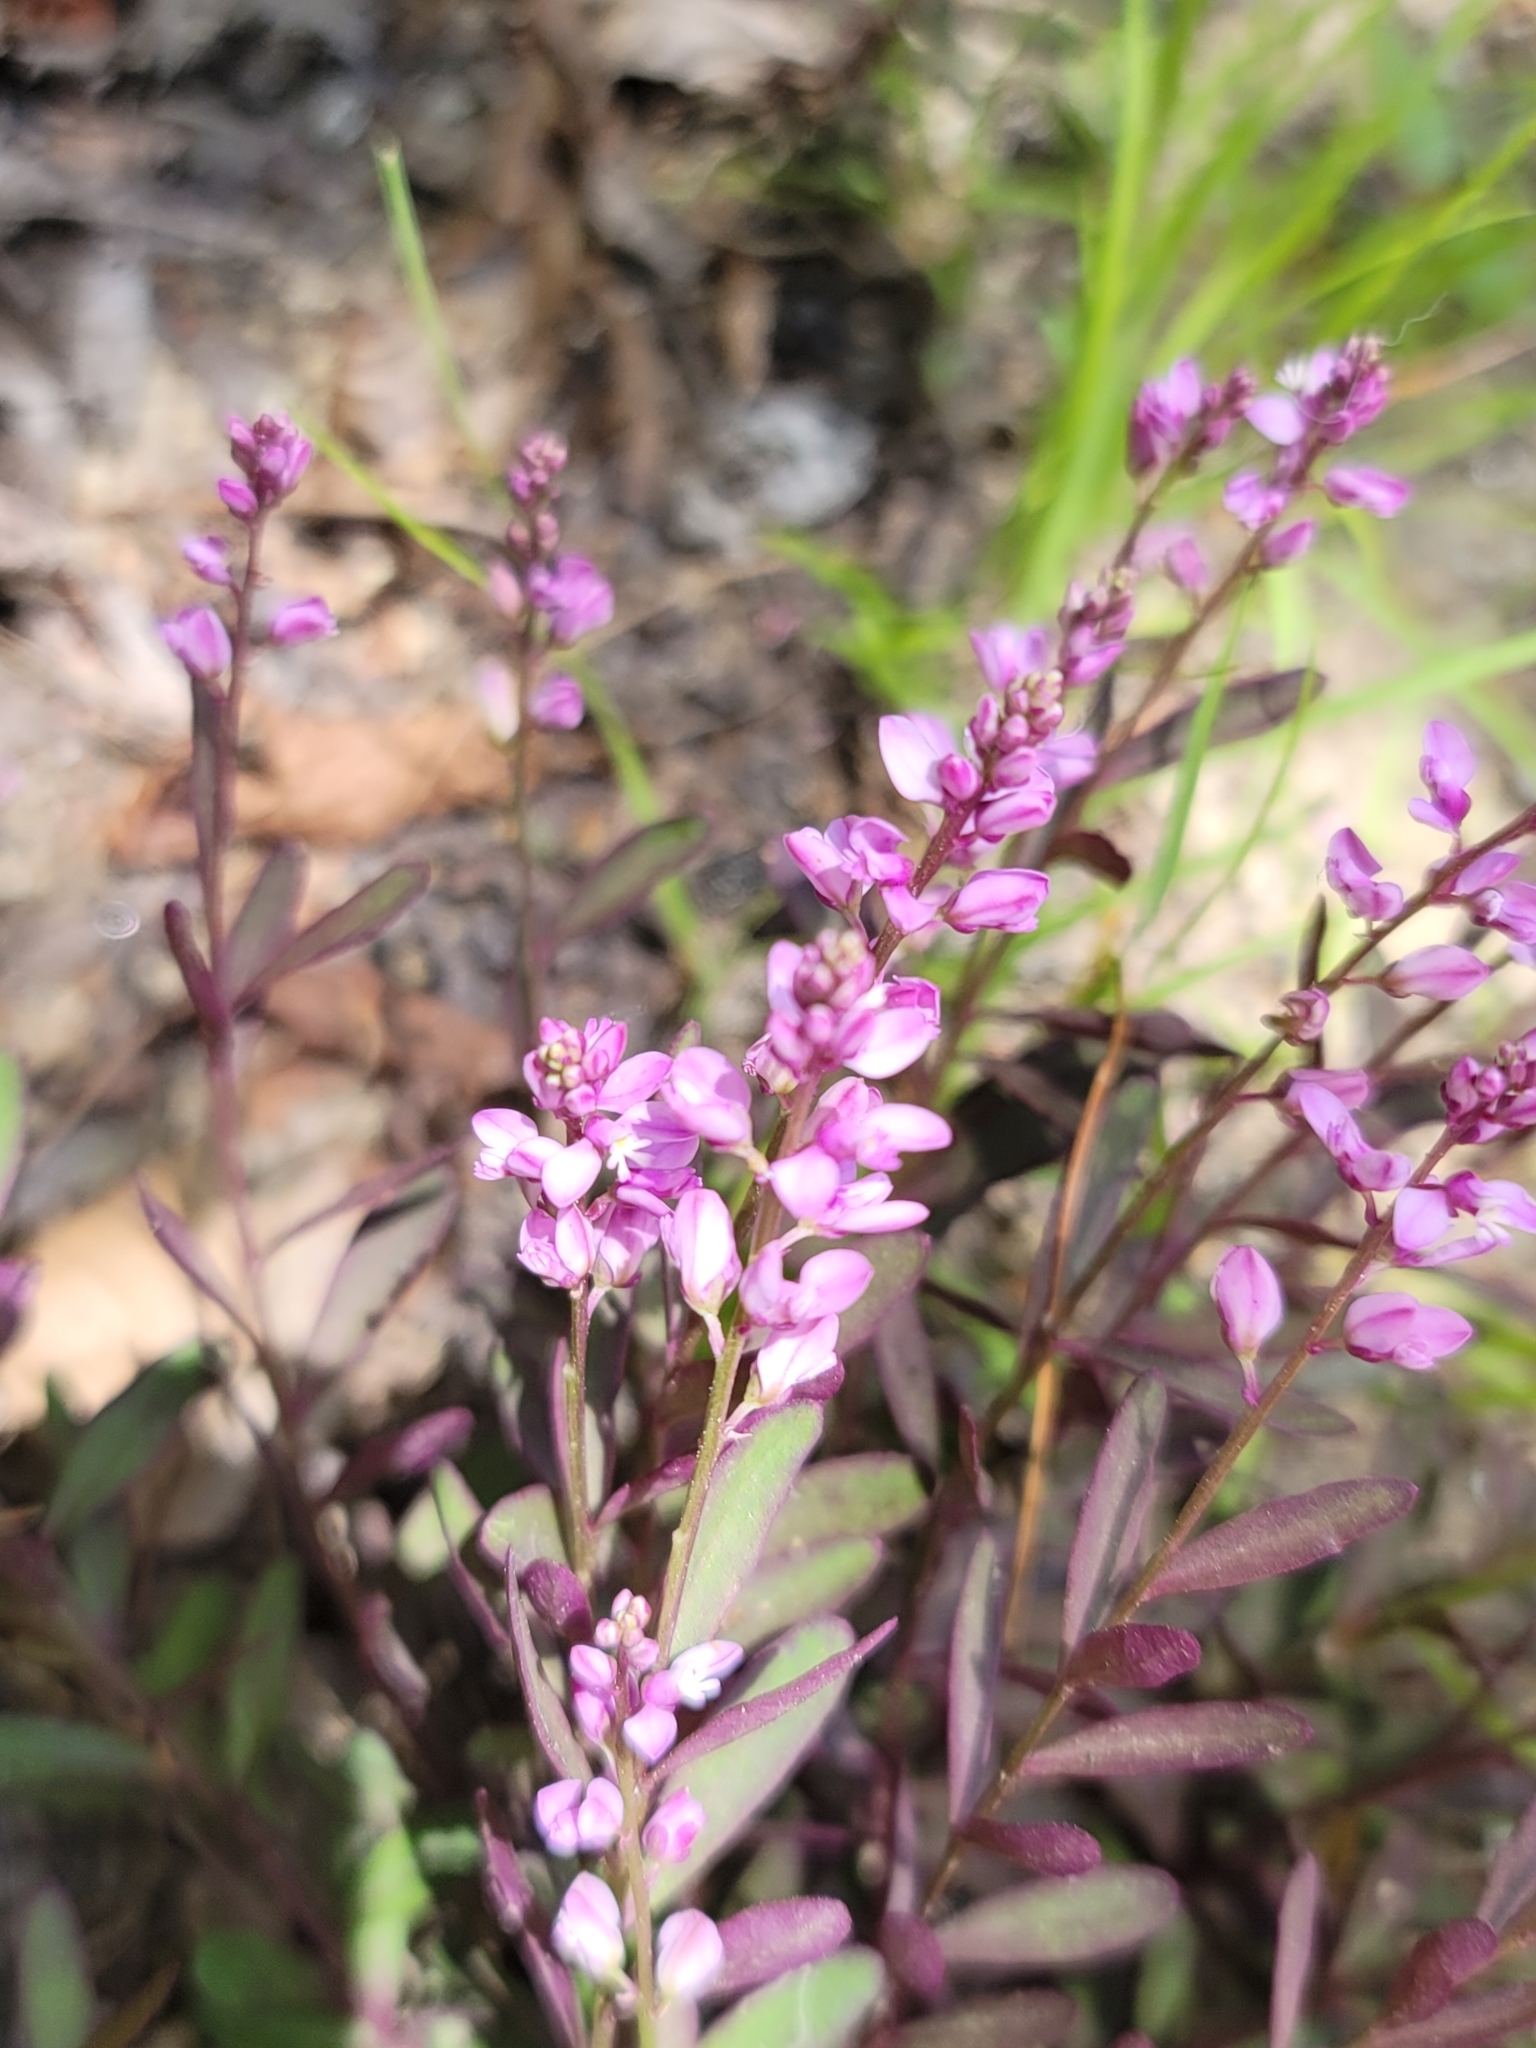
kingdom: Plantae
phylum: Tracheophyta
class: Magnoliopsida
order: Fabales
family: Polygalaceae
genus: Polygala
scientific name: Polygala polygama
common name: Bitter milkwort
